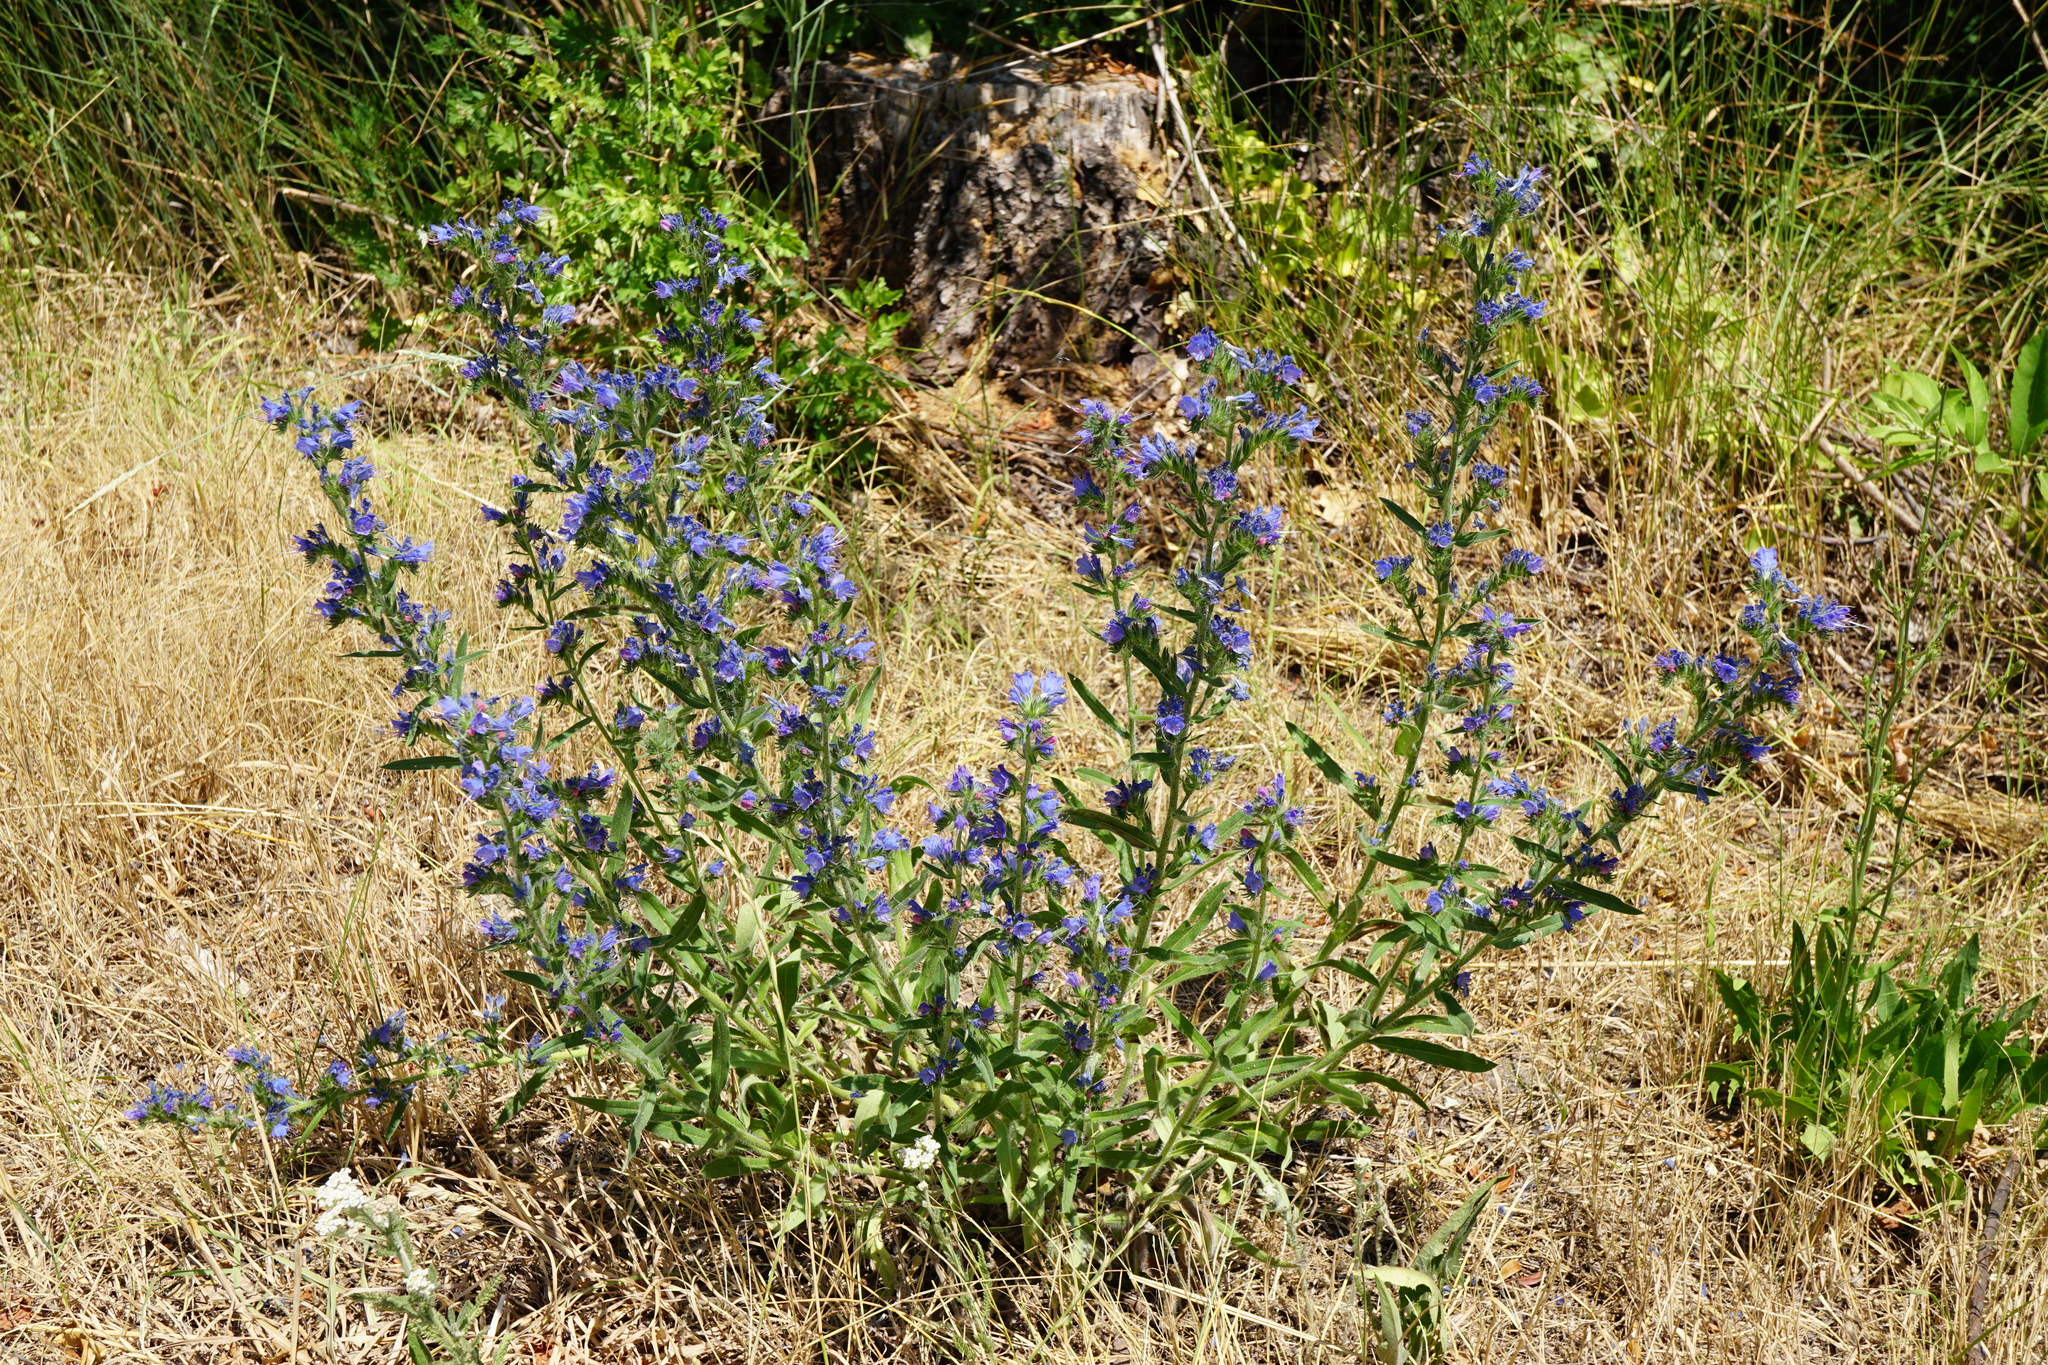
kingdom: Plantae
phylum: Tracheophyta
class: Magnoliopsida
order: Boraginales
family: Boraginaceae
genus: Echium
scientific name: Echium vulgare
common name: Common viper's bugloss
